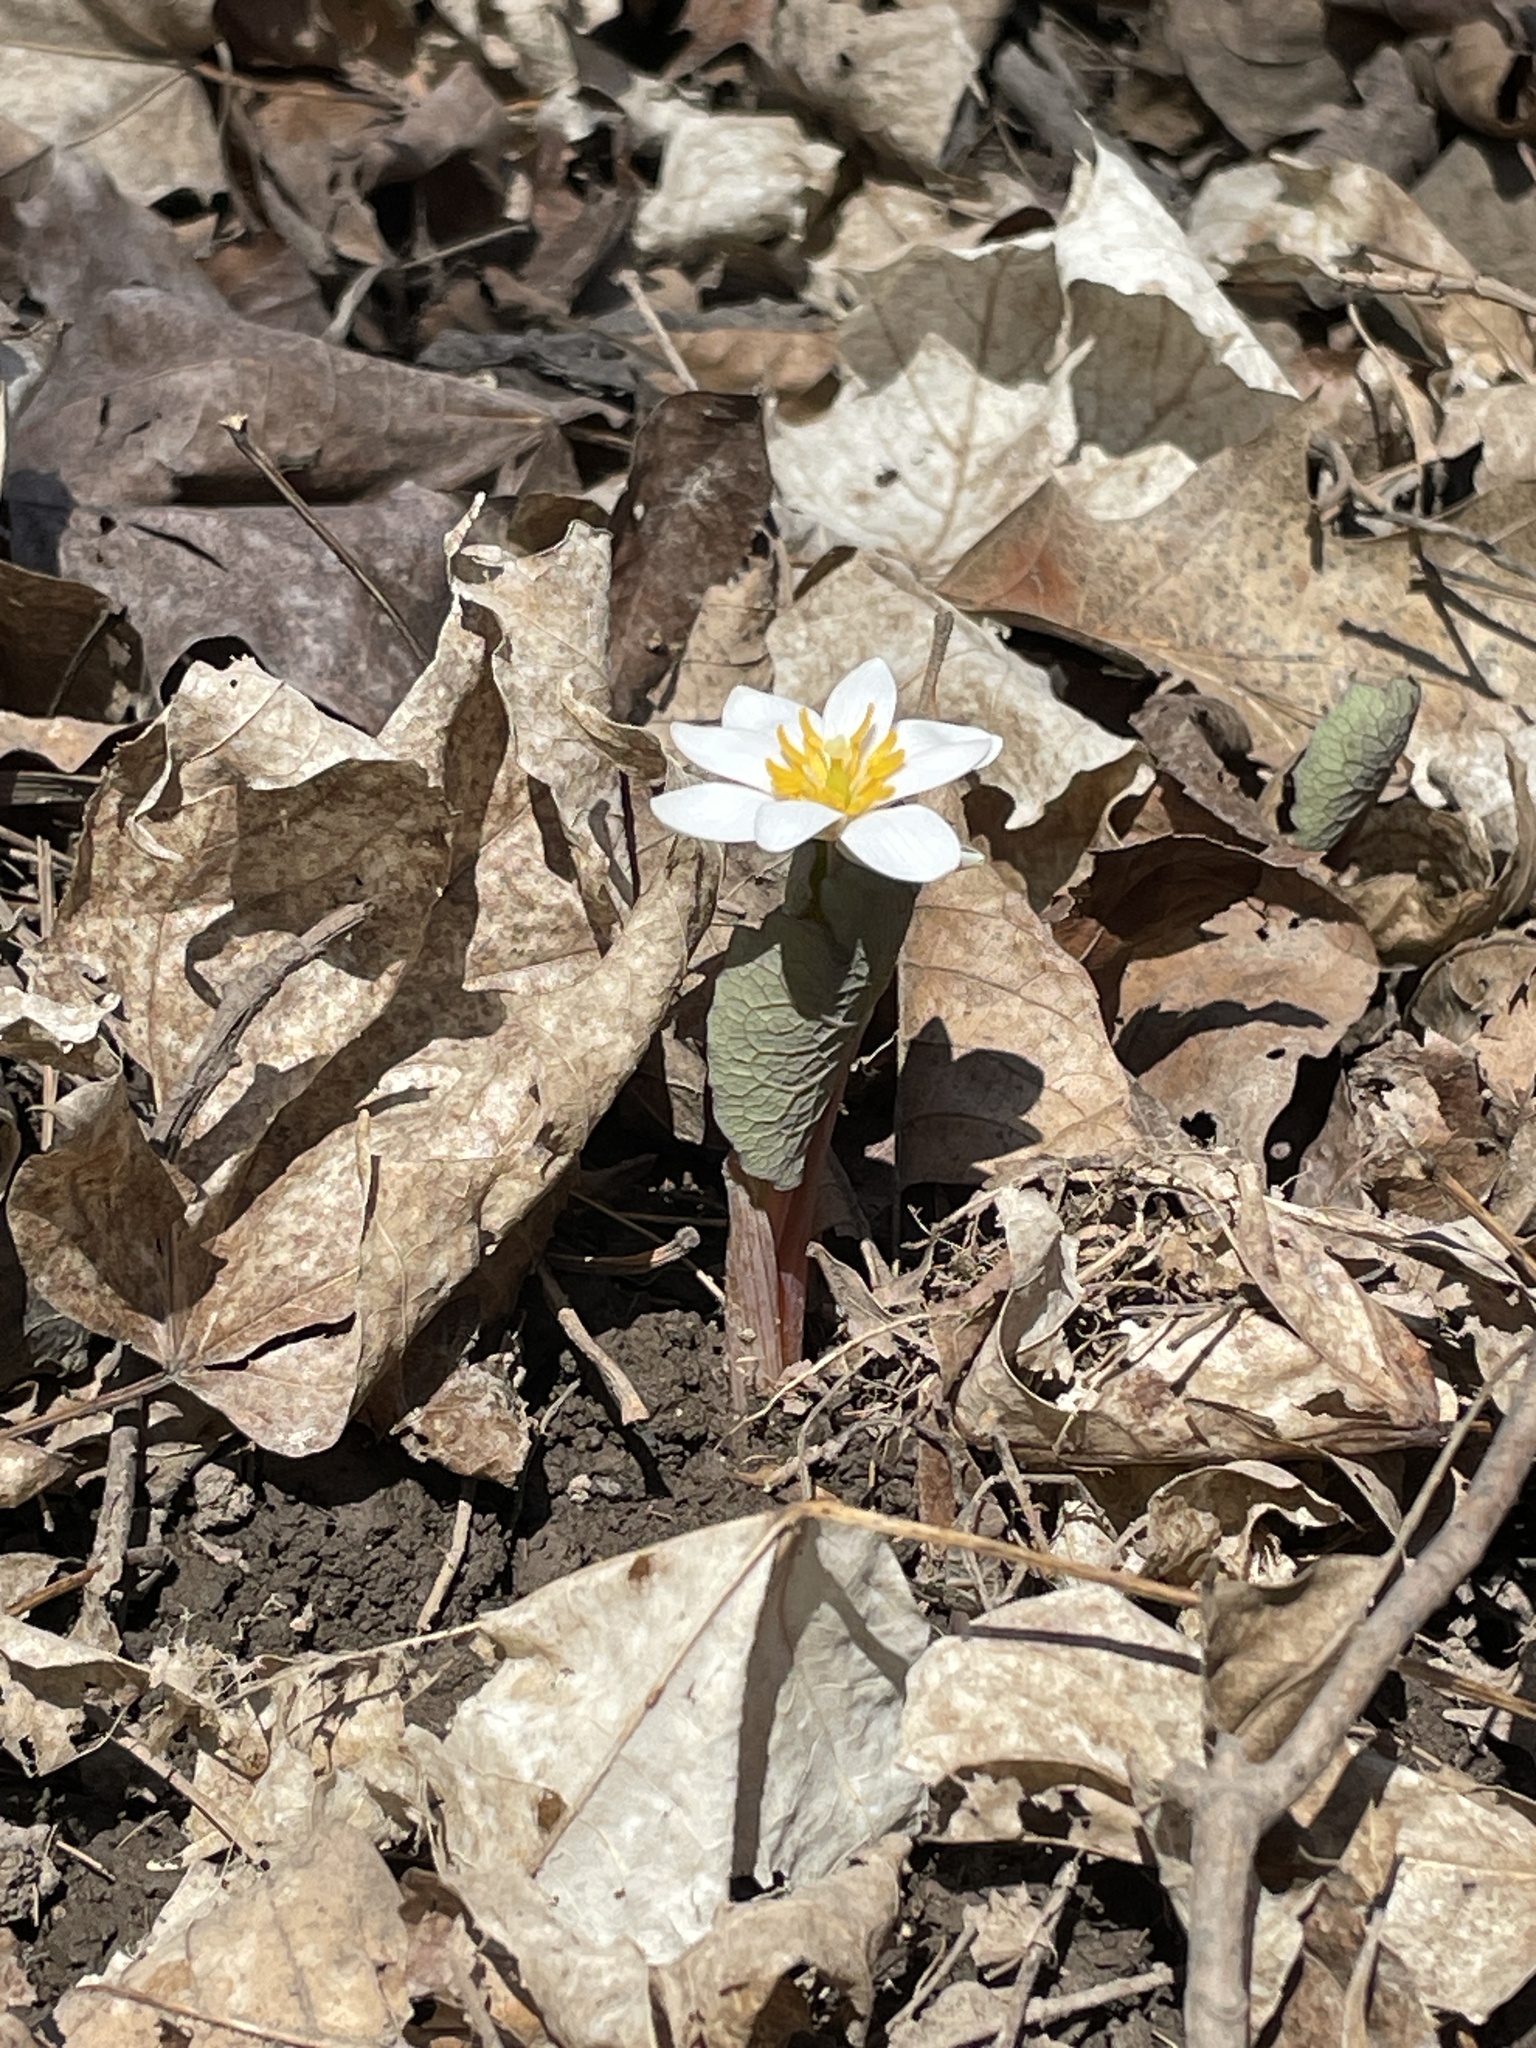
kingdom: Plantae
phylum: Tracheophyta
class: Magnoliopsida
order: Ranunculales
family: Papaveraceae
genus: Sanguinaria
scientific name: Sanguinaria canadensis
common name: Bloodroot
